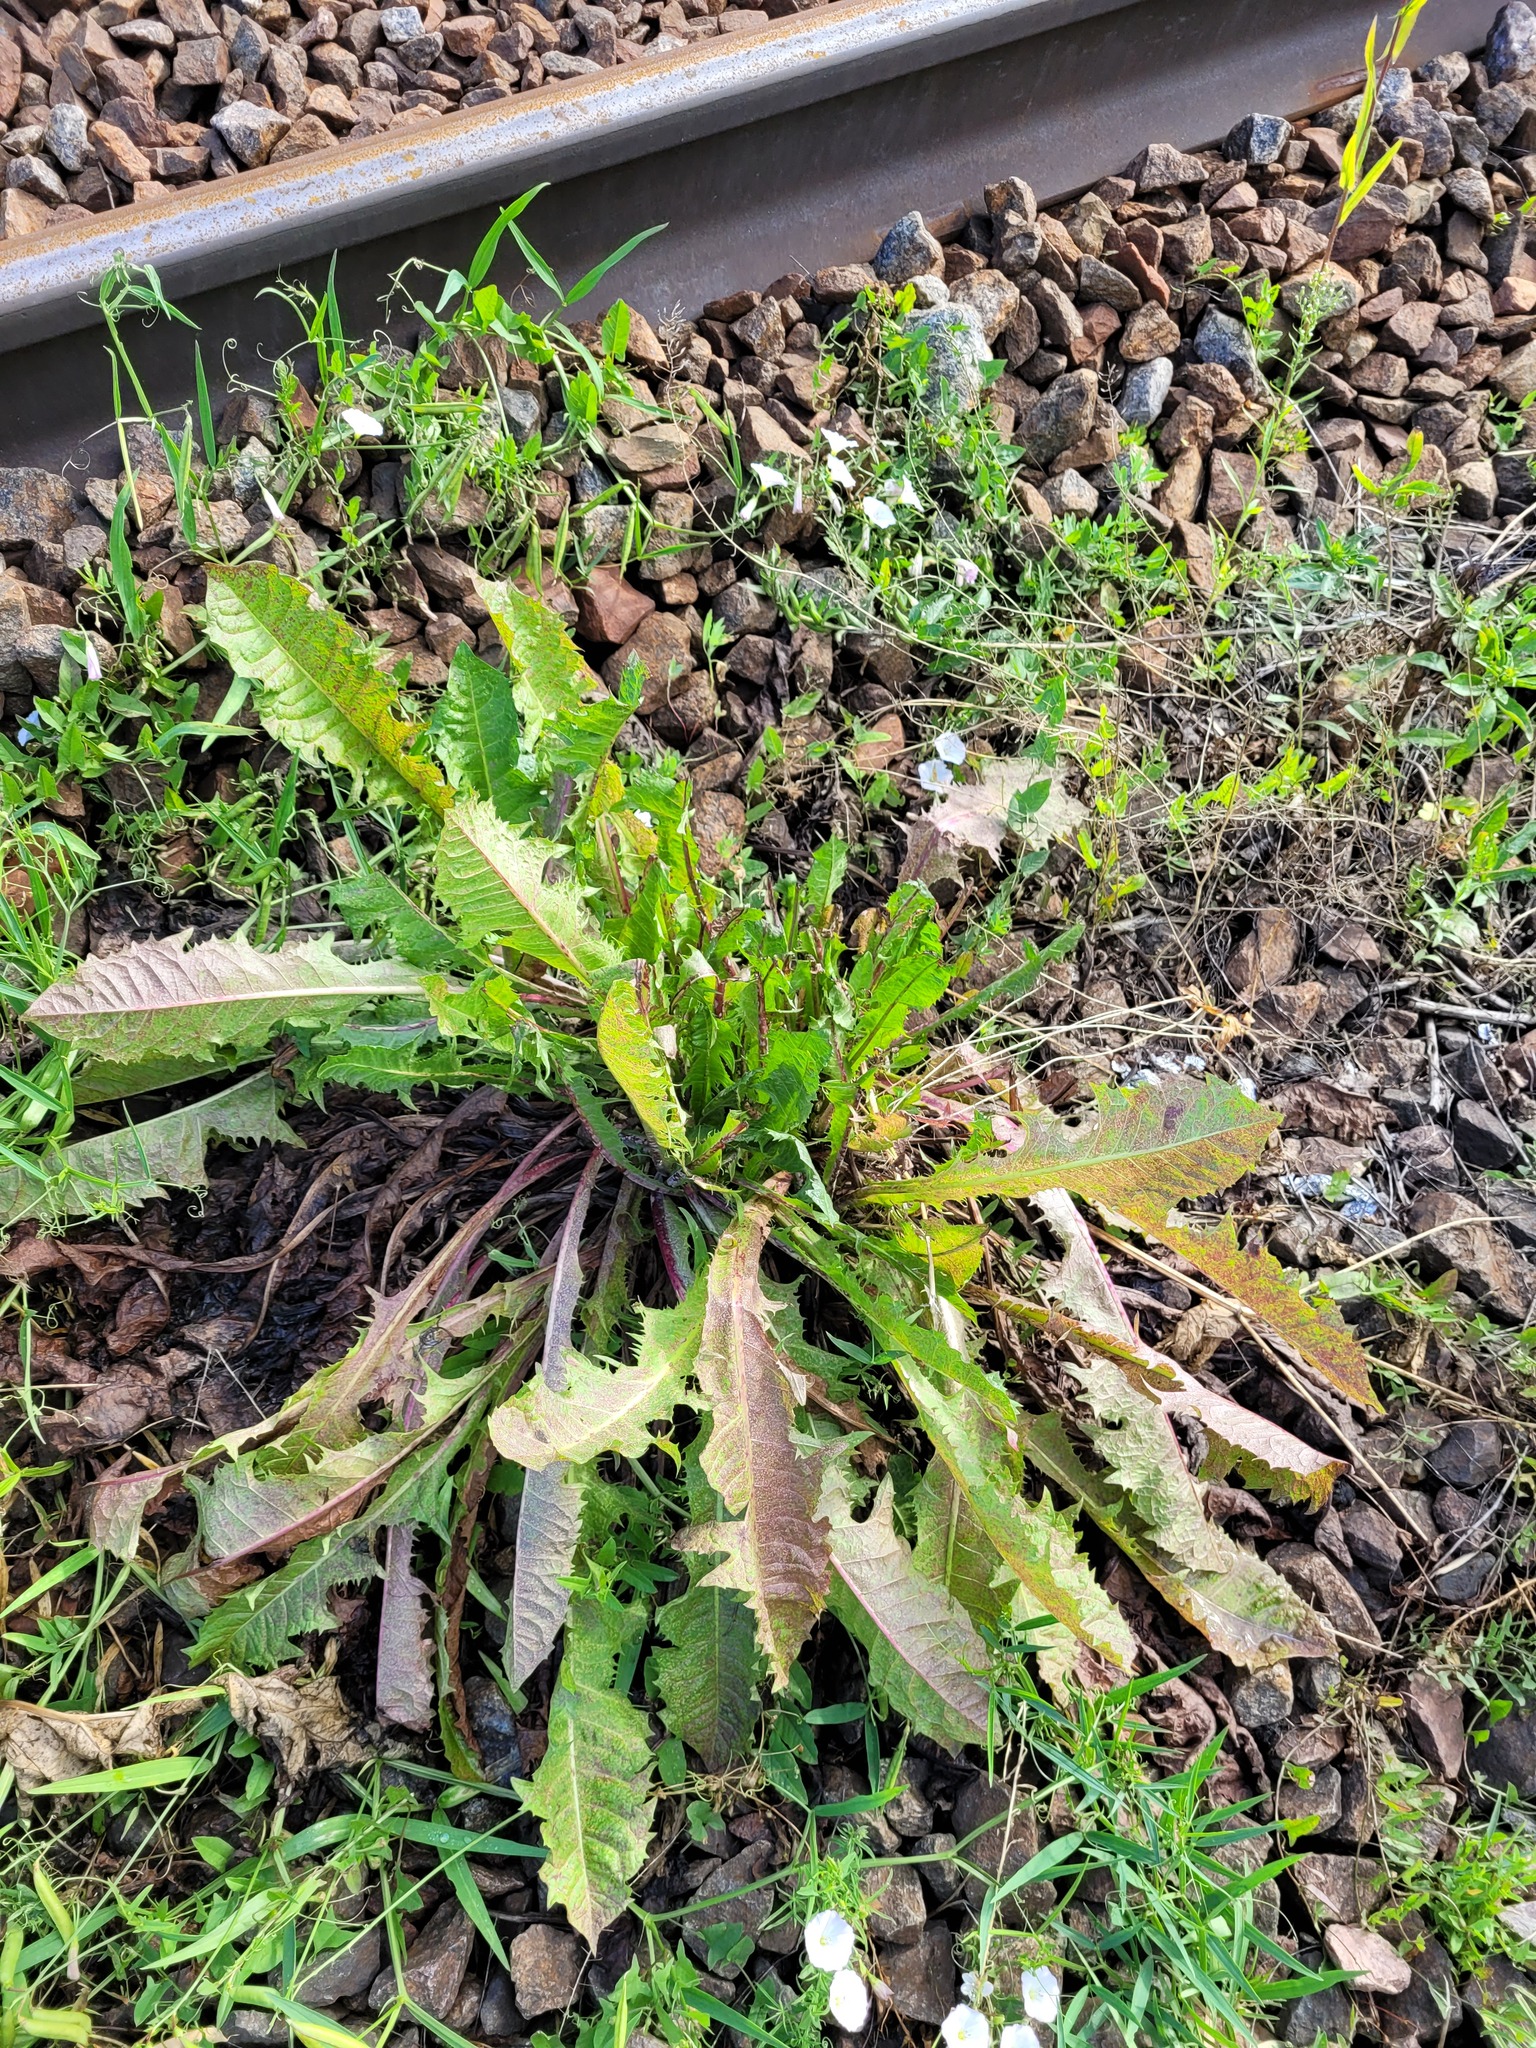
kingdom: Plantae
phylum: Tracheophyta
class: Magnoliopsida
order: Asterales
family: Asteraceae
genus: Taraxacum
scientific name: Taraxacum officinale
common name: Common dandelion
